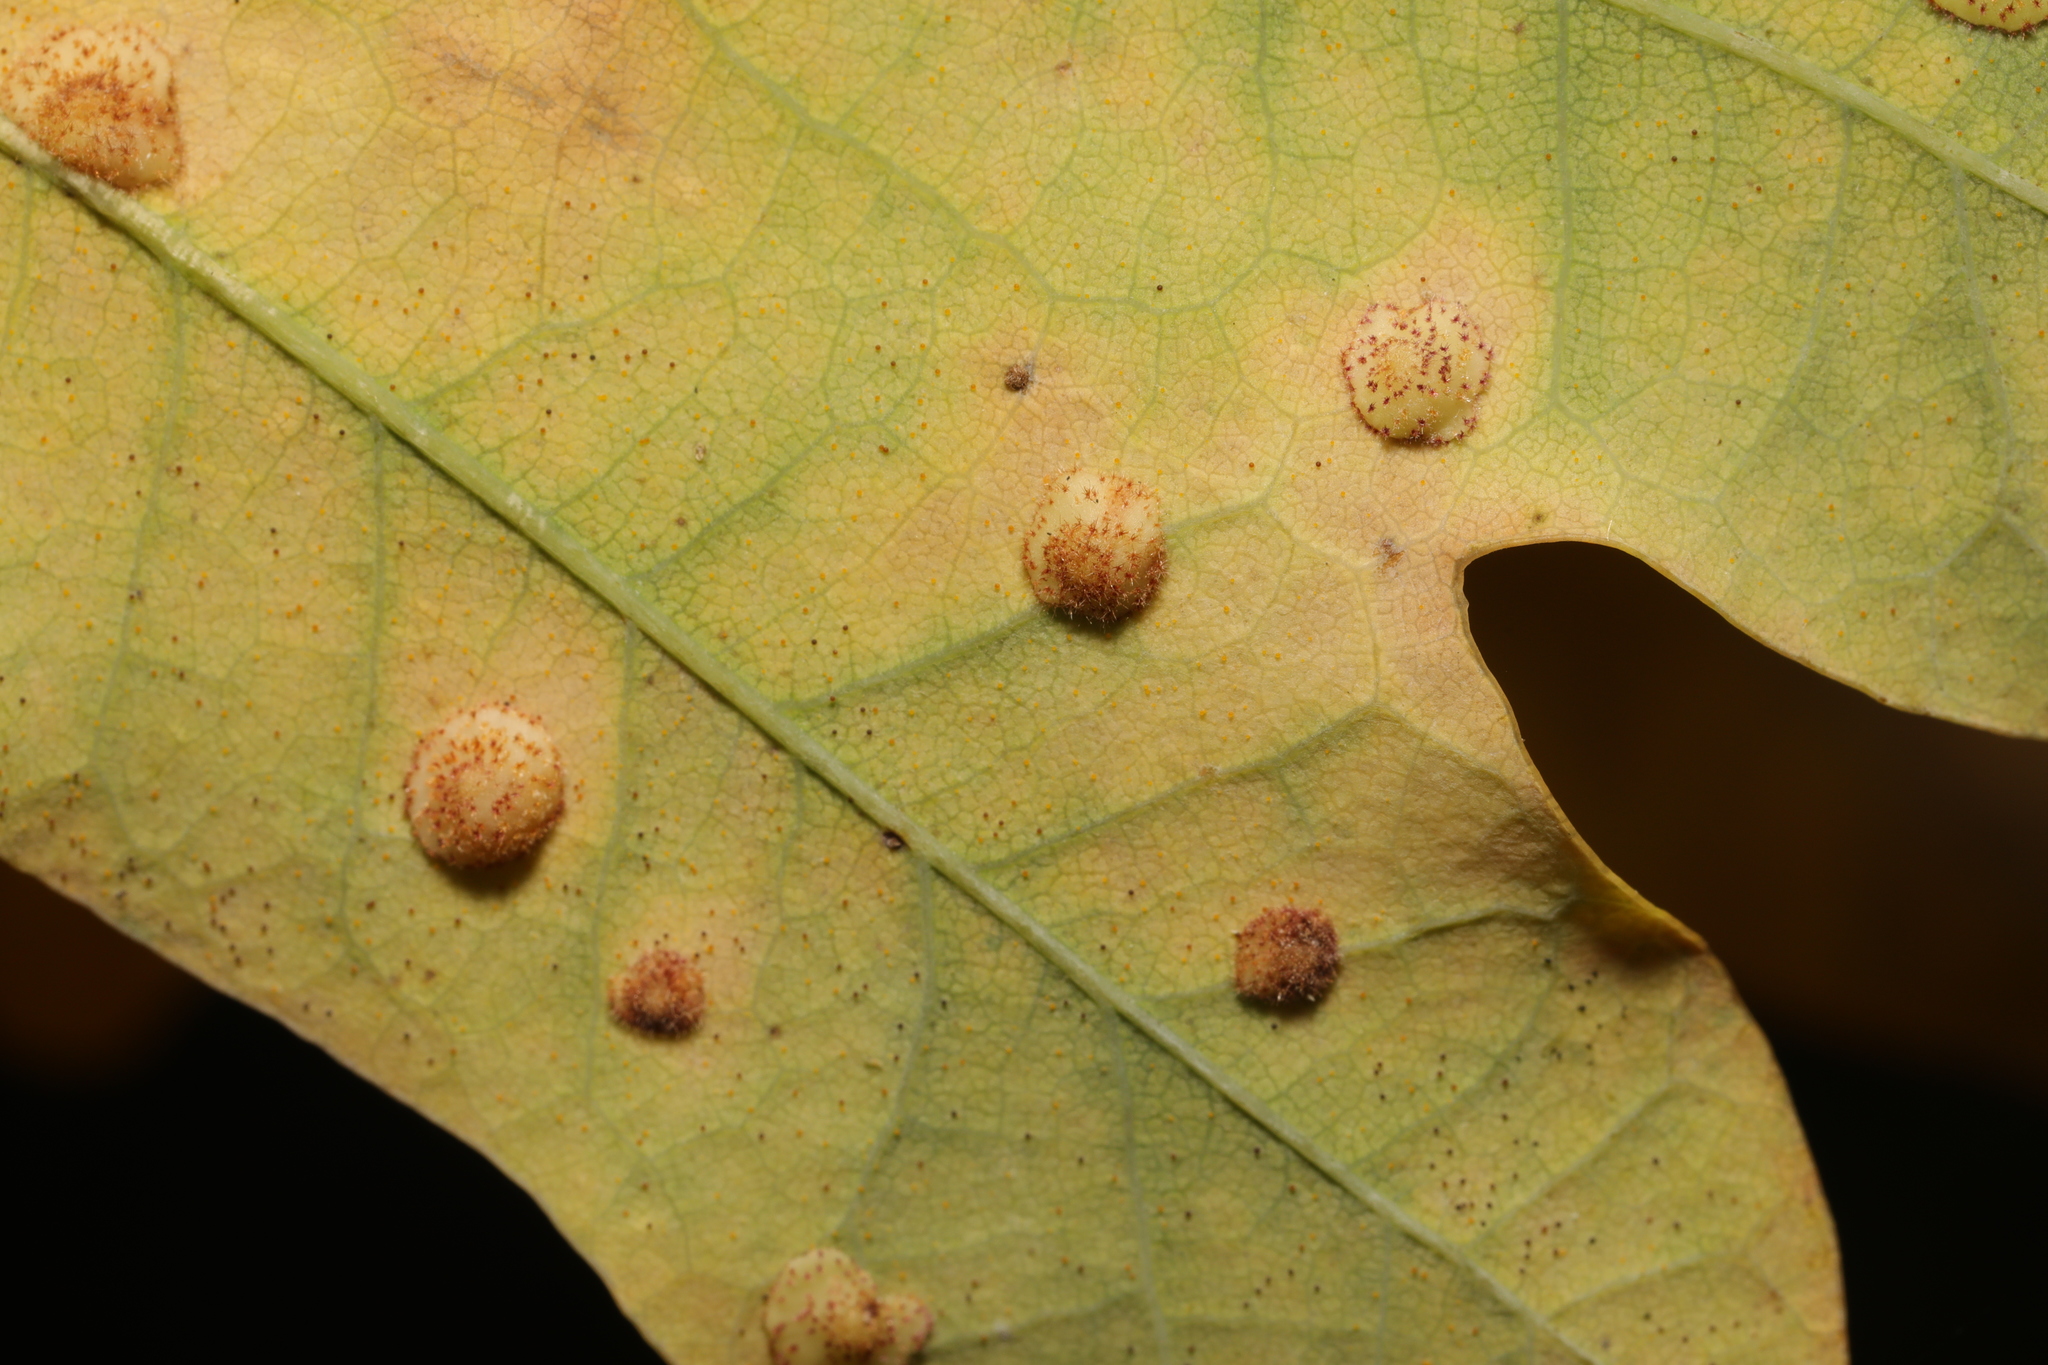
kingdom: Animalia
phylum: Arthropoda
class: Insecta
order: Hymenoptera
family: Cynipidae
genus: Neuroterus
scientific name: Neuroterus quercusbaccarum
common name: Common spangle gall
